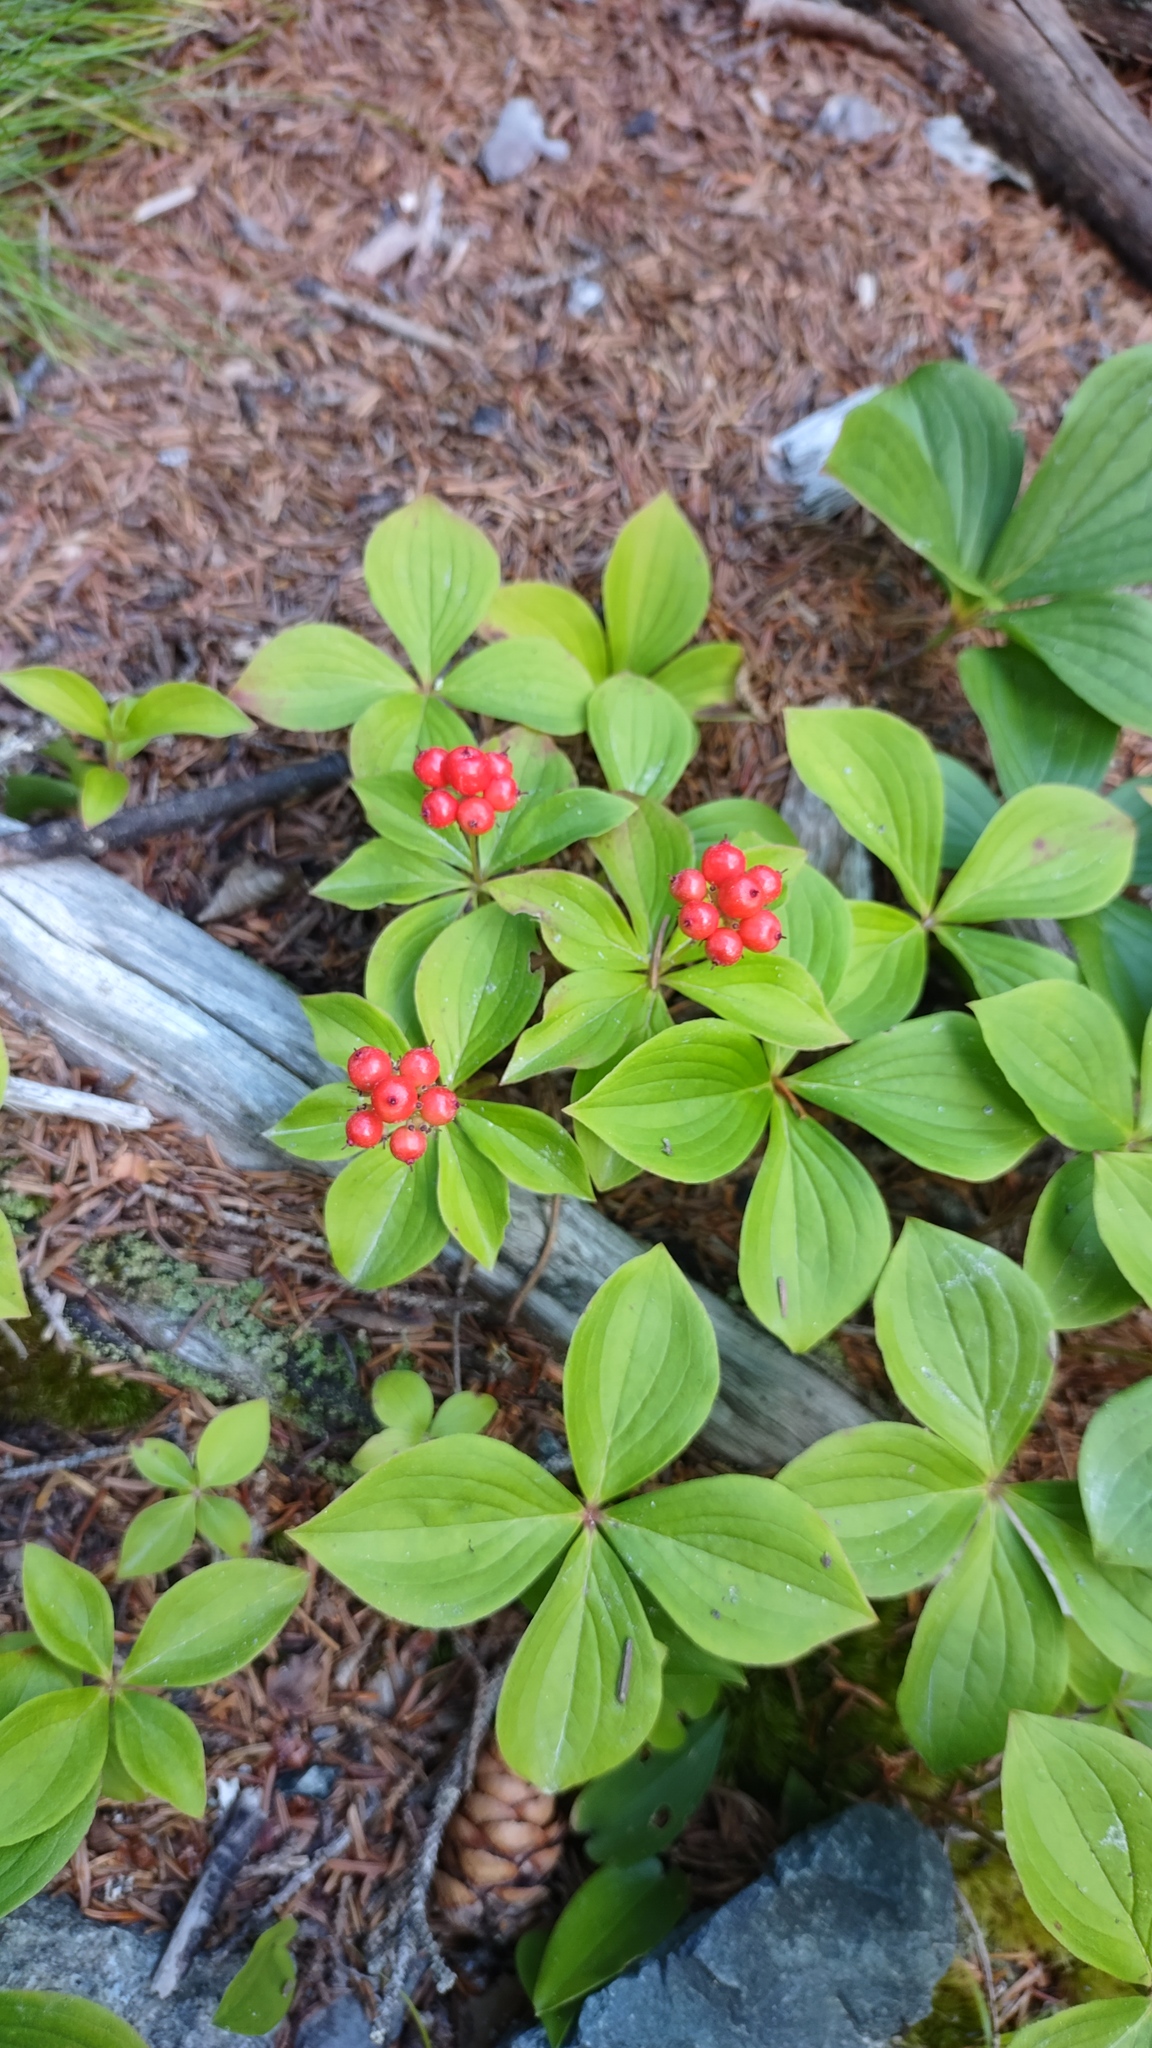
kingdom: Plantae
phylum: Tracheophyta
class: Magnoliopsida
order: Cornales
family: Cornaceae
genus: Cornus
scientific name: Cornus canadensis
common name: Creeping dogwood
